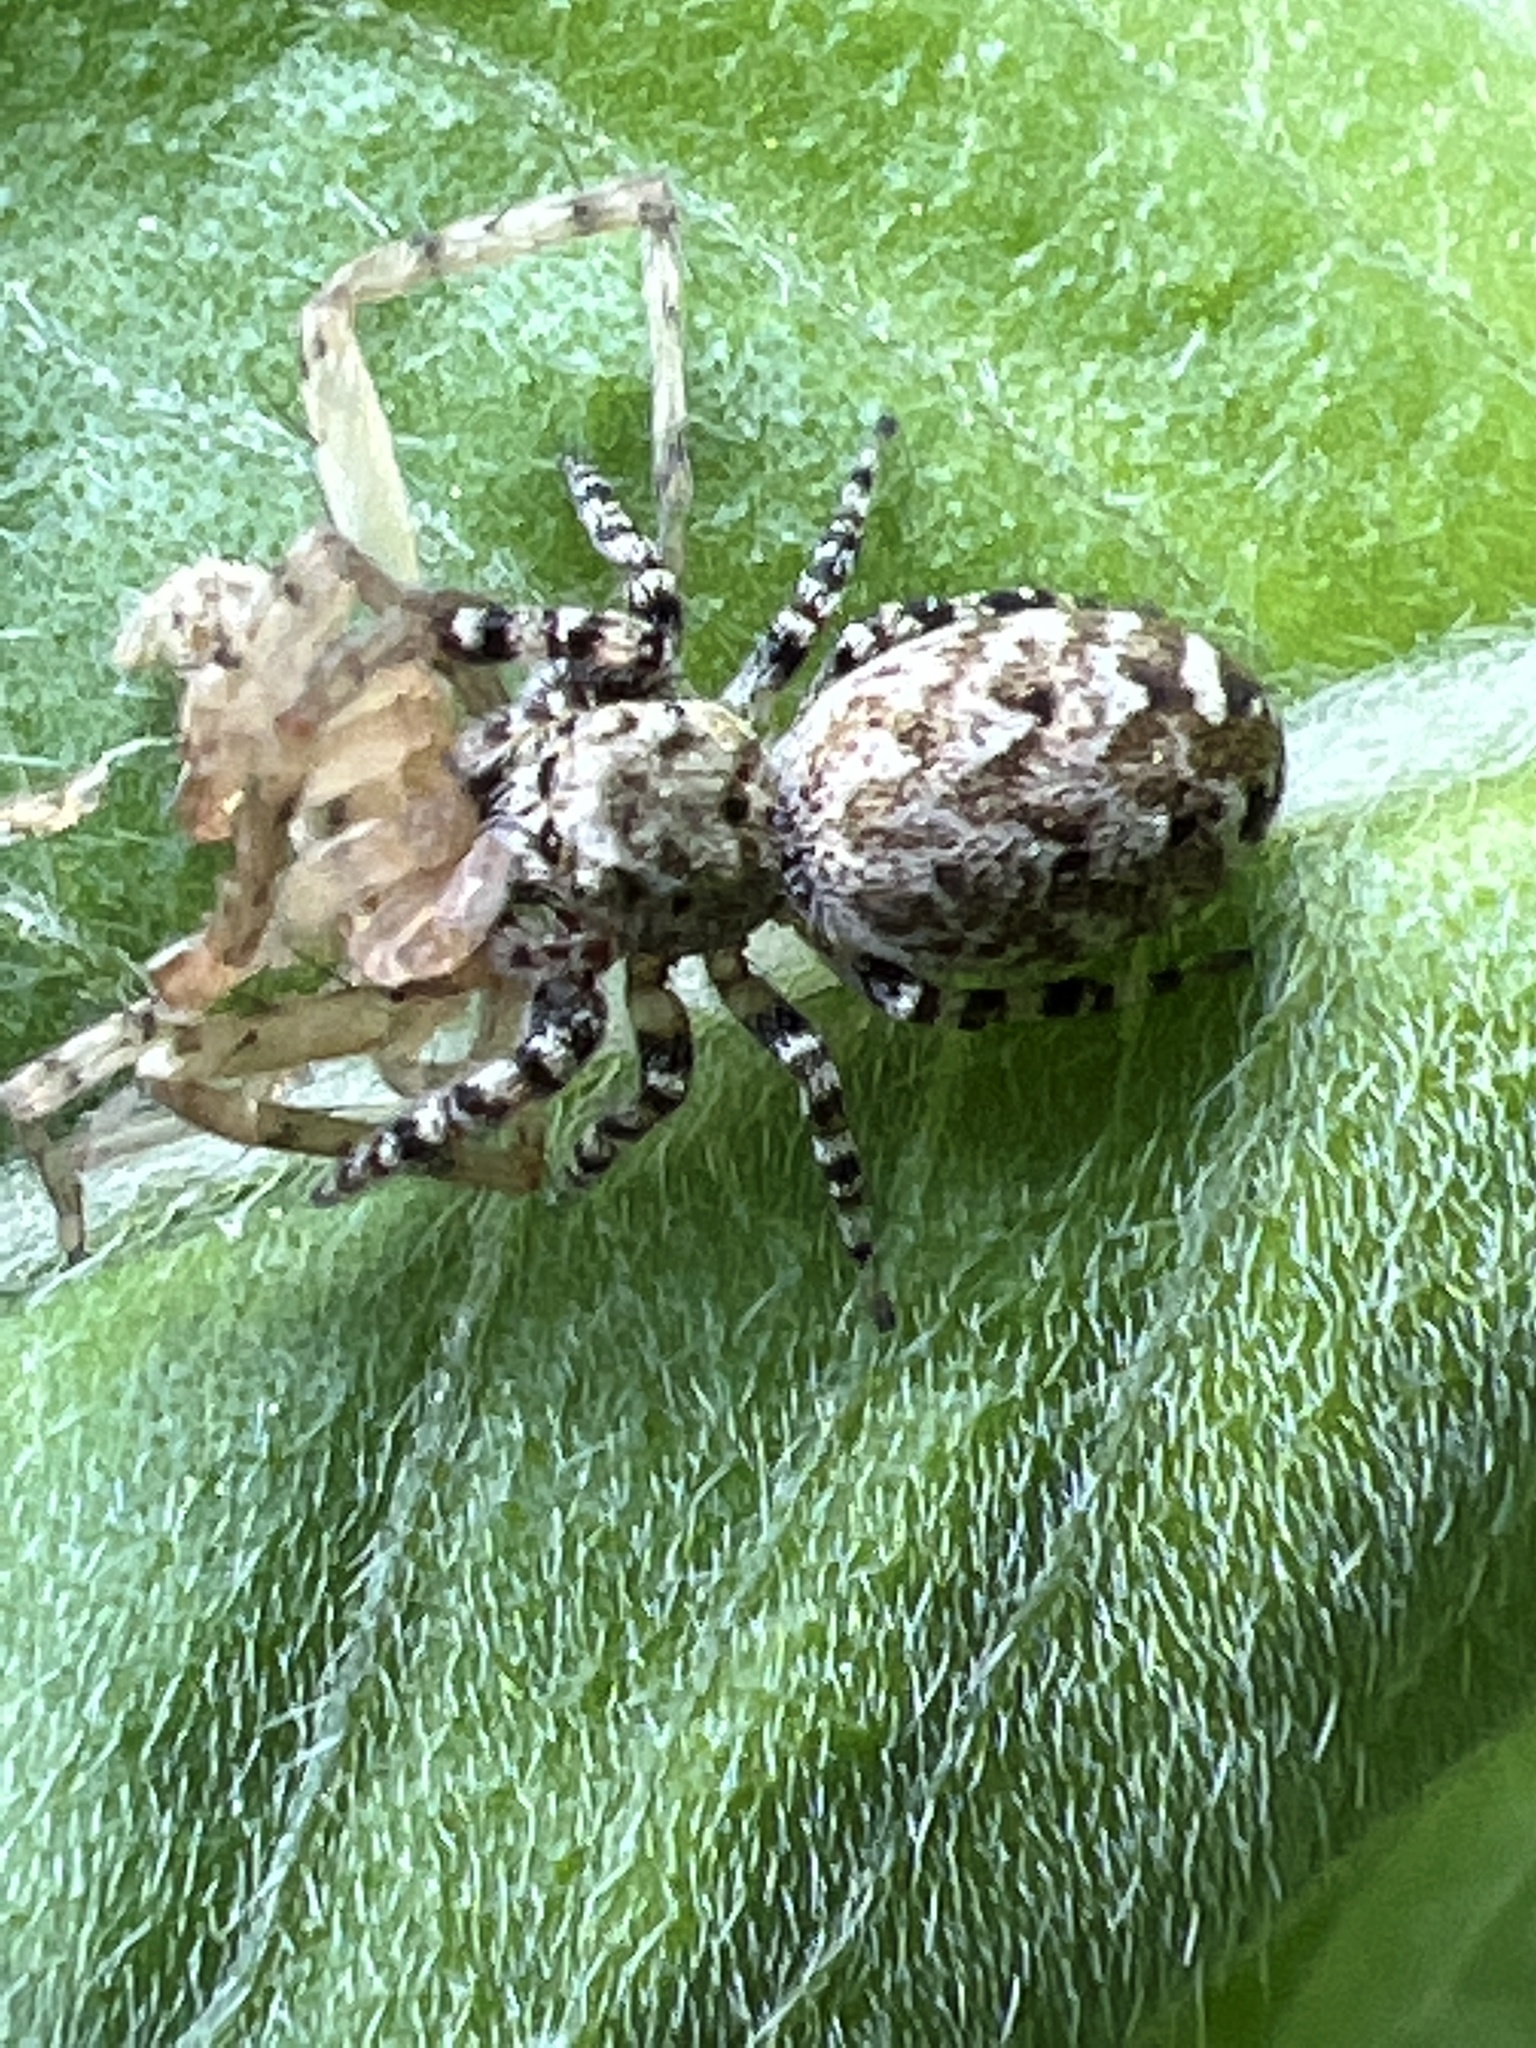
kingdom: Animalia
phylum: Arthropoda
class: Arachnida
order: Araneae
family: Salticidae
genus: Pelegrina
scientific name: Pelegrina galathea
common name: Jumping spiders
